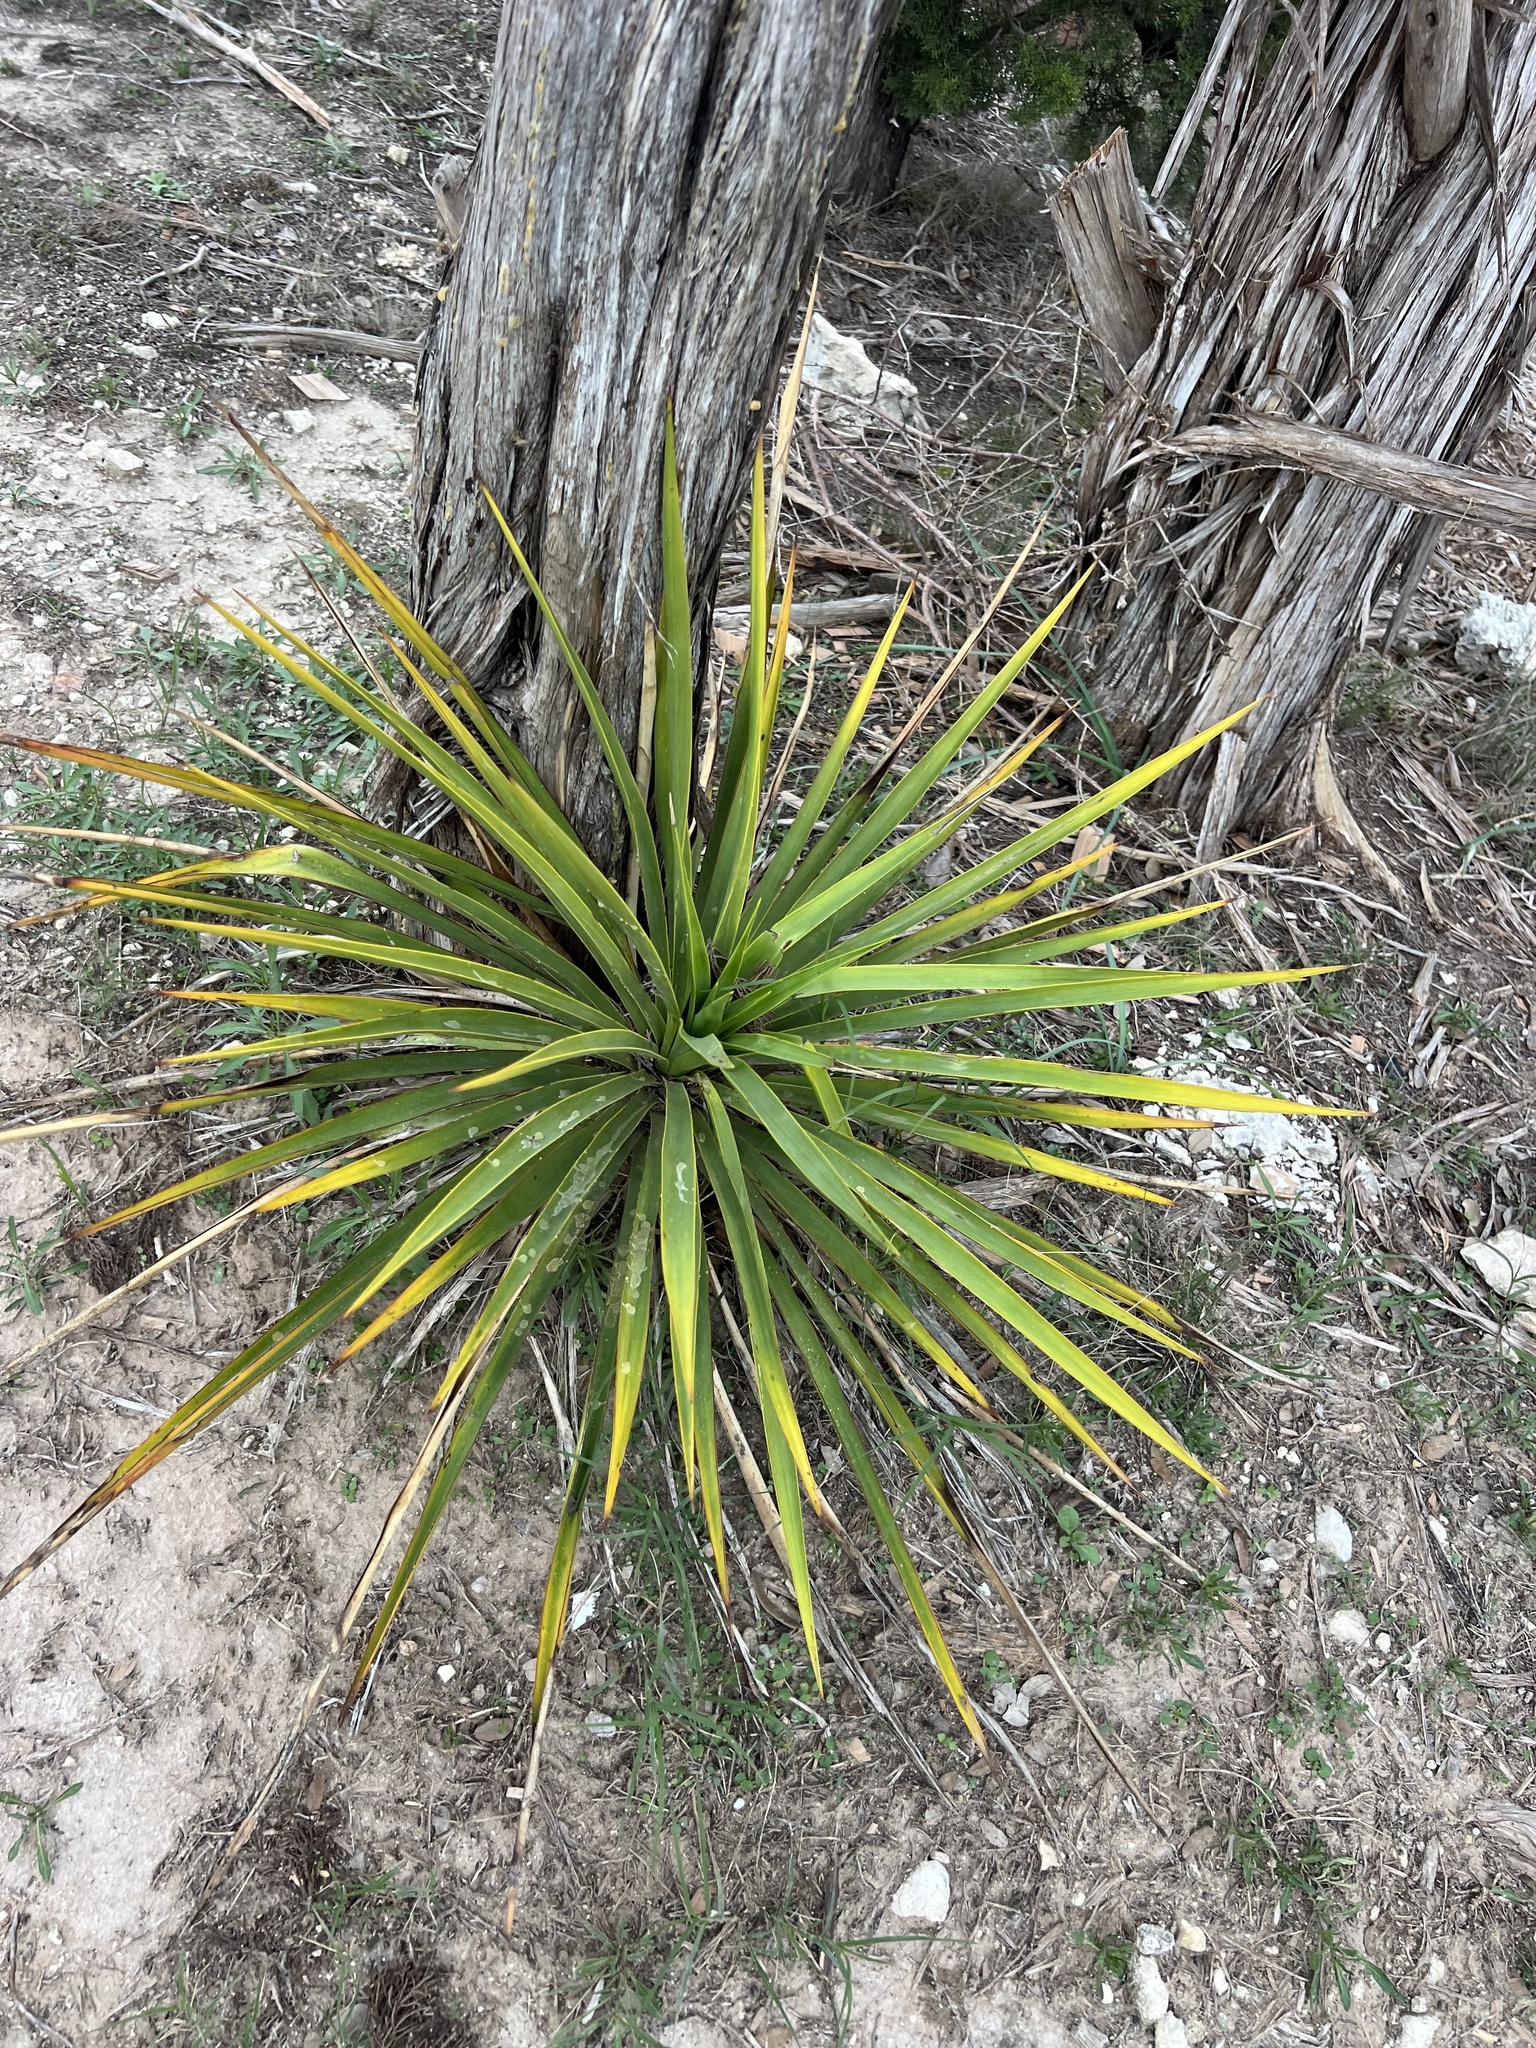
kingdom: Plantae
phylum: Tracheophyta
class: Liliopsida
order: Asparagales
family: Asparagaceae
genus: Yucca
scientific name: Yucca rupicola
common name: Twisted-leaf spanish-dagger
